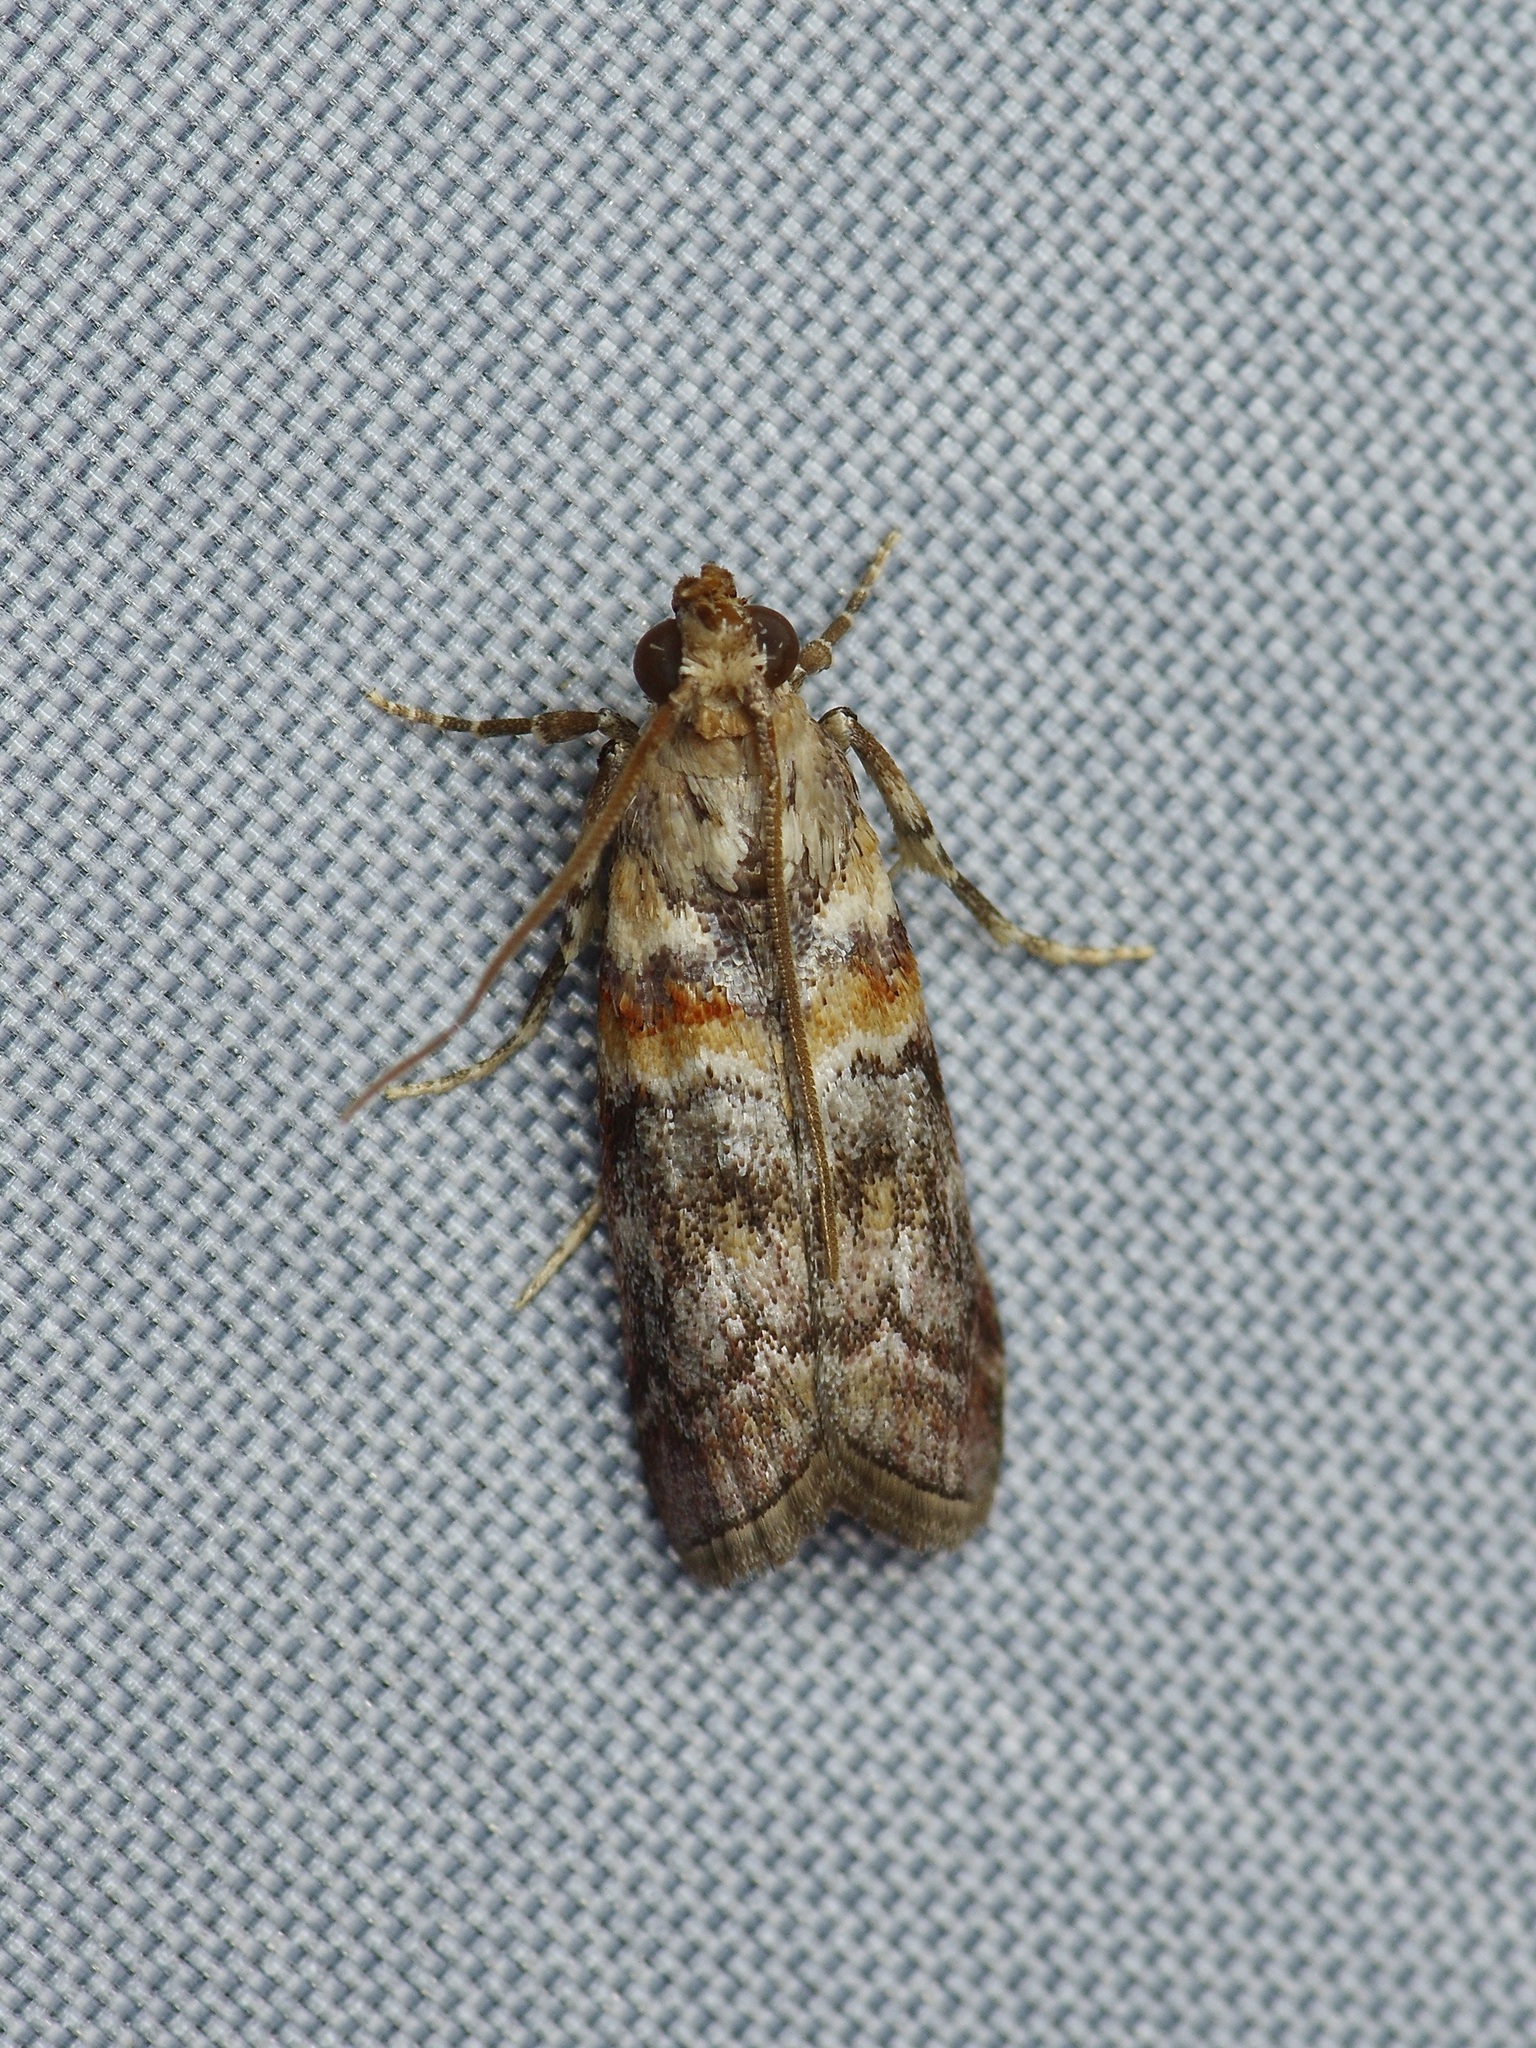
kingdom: Animalia
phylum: Arthropoda
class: Insecta
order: Lepidoptera
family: Pyralidae
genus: Adelphia
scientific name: Adelphia petrella
